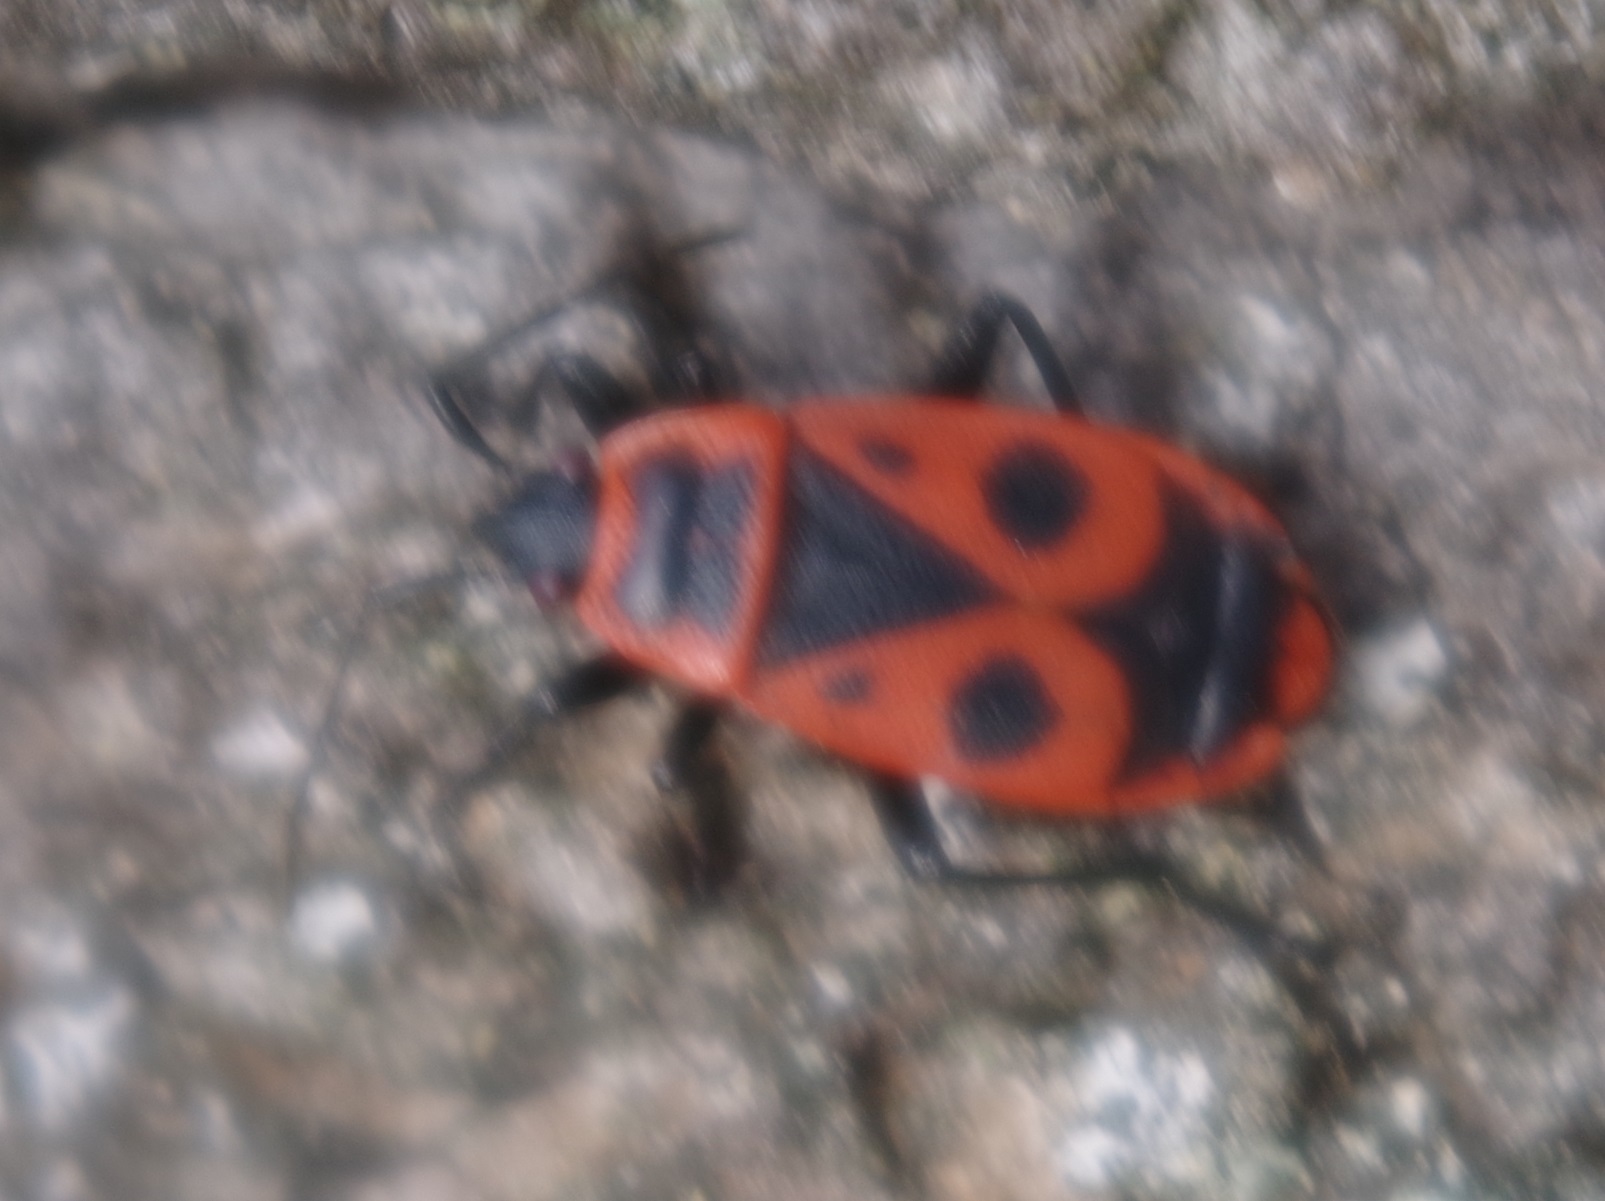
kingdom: Animalia
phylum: Arthropoda
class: Insecta
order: Hemiptera
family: Pyrrhocoridae
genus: Pyrrhocoris
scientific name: Pyrrhocoris apterus
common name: Firebug
